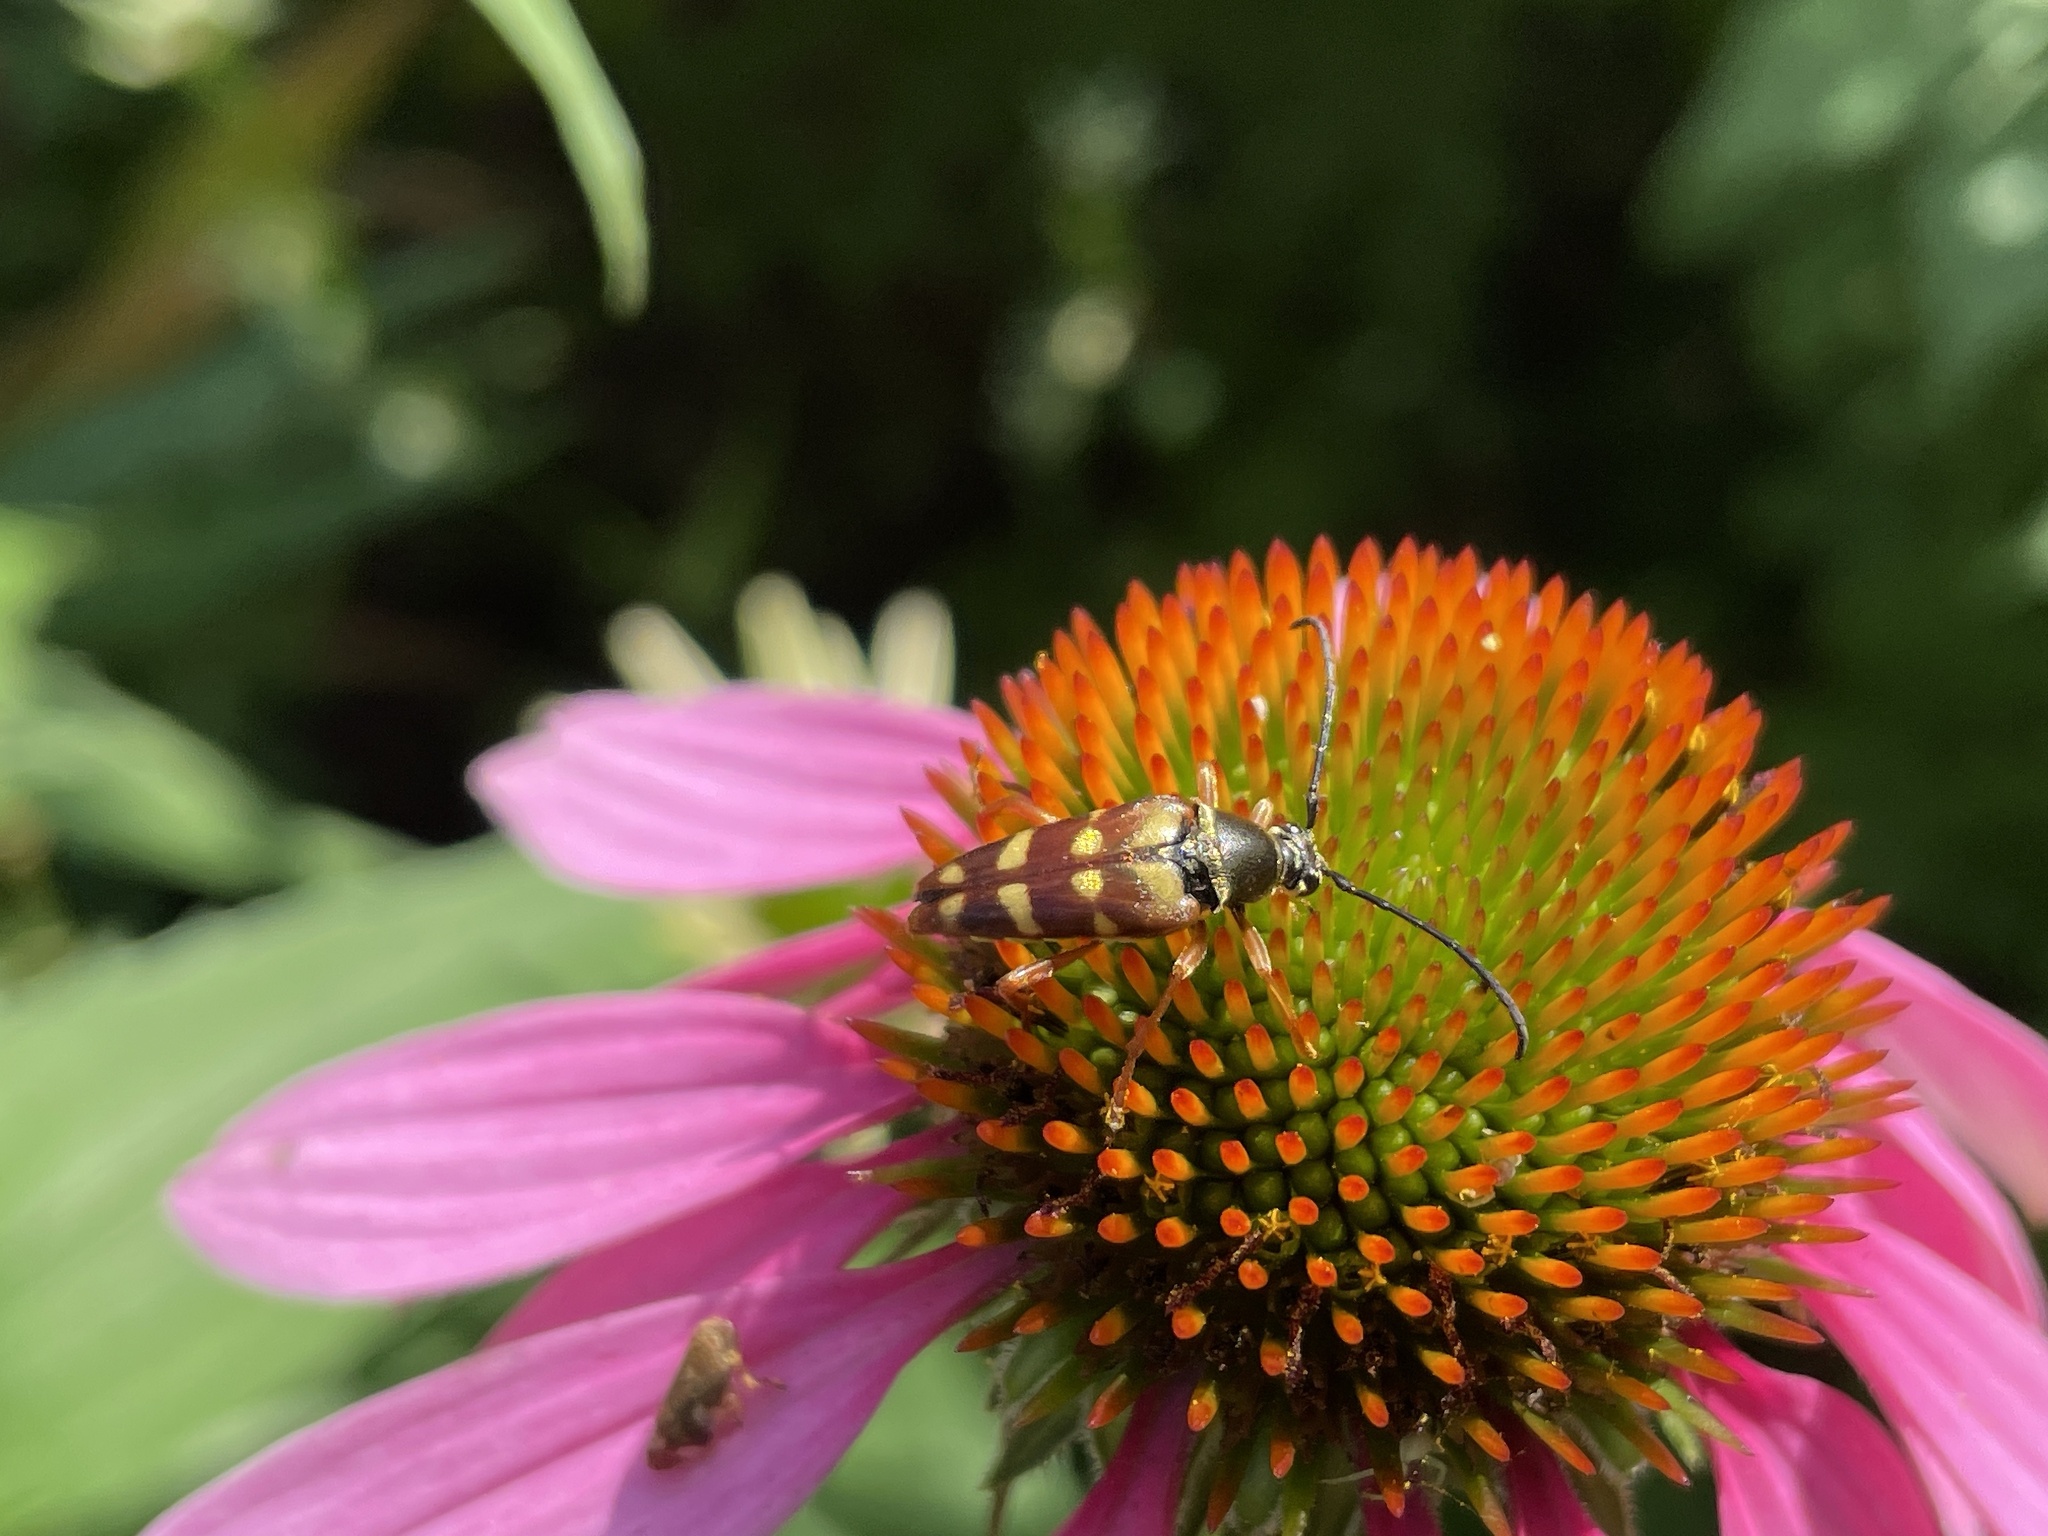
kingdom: Animalia
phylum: Arthropoda
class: Insecta
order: Coleoptera
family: Cerambycidae
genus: Typocerus
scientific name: Typocerus velutinus
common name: Banded longhorn beetle
